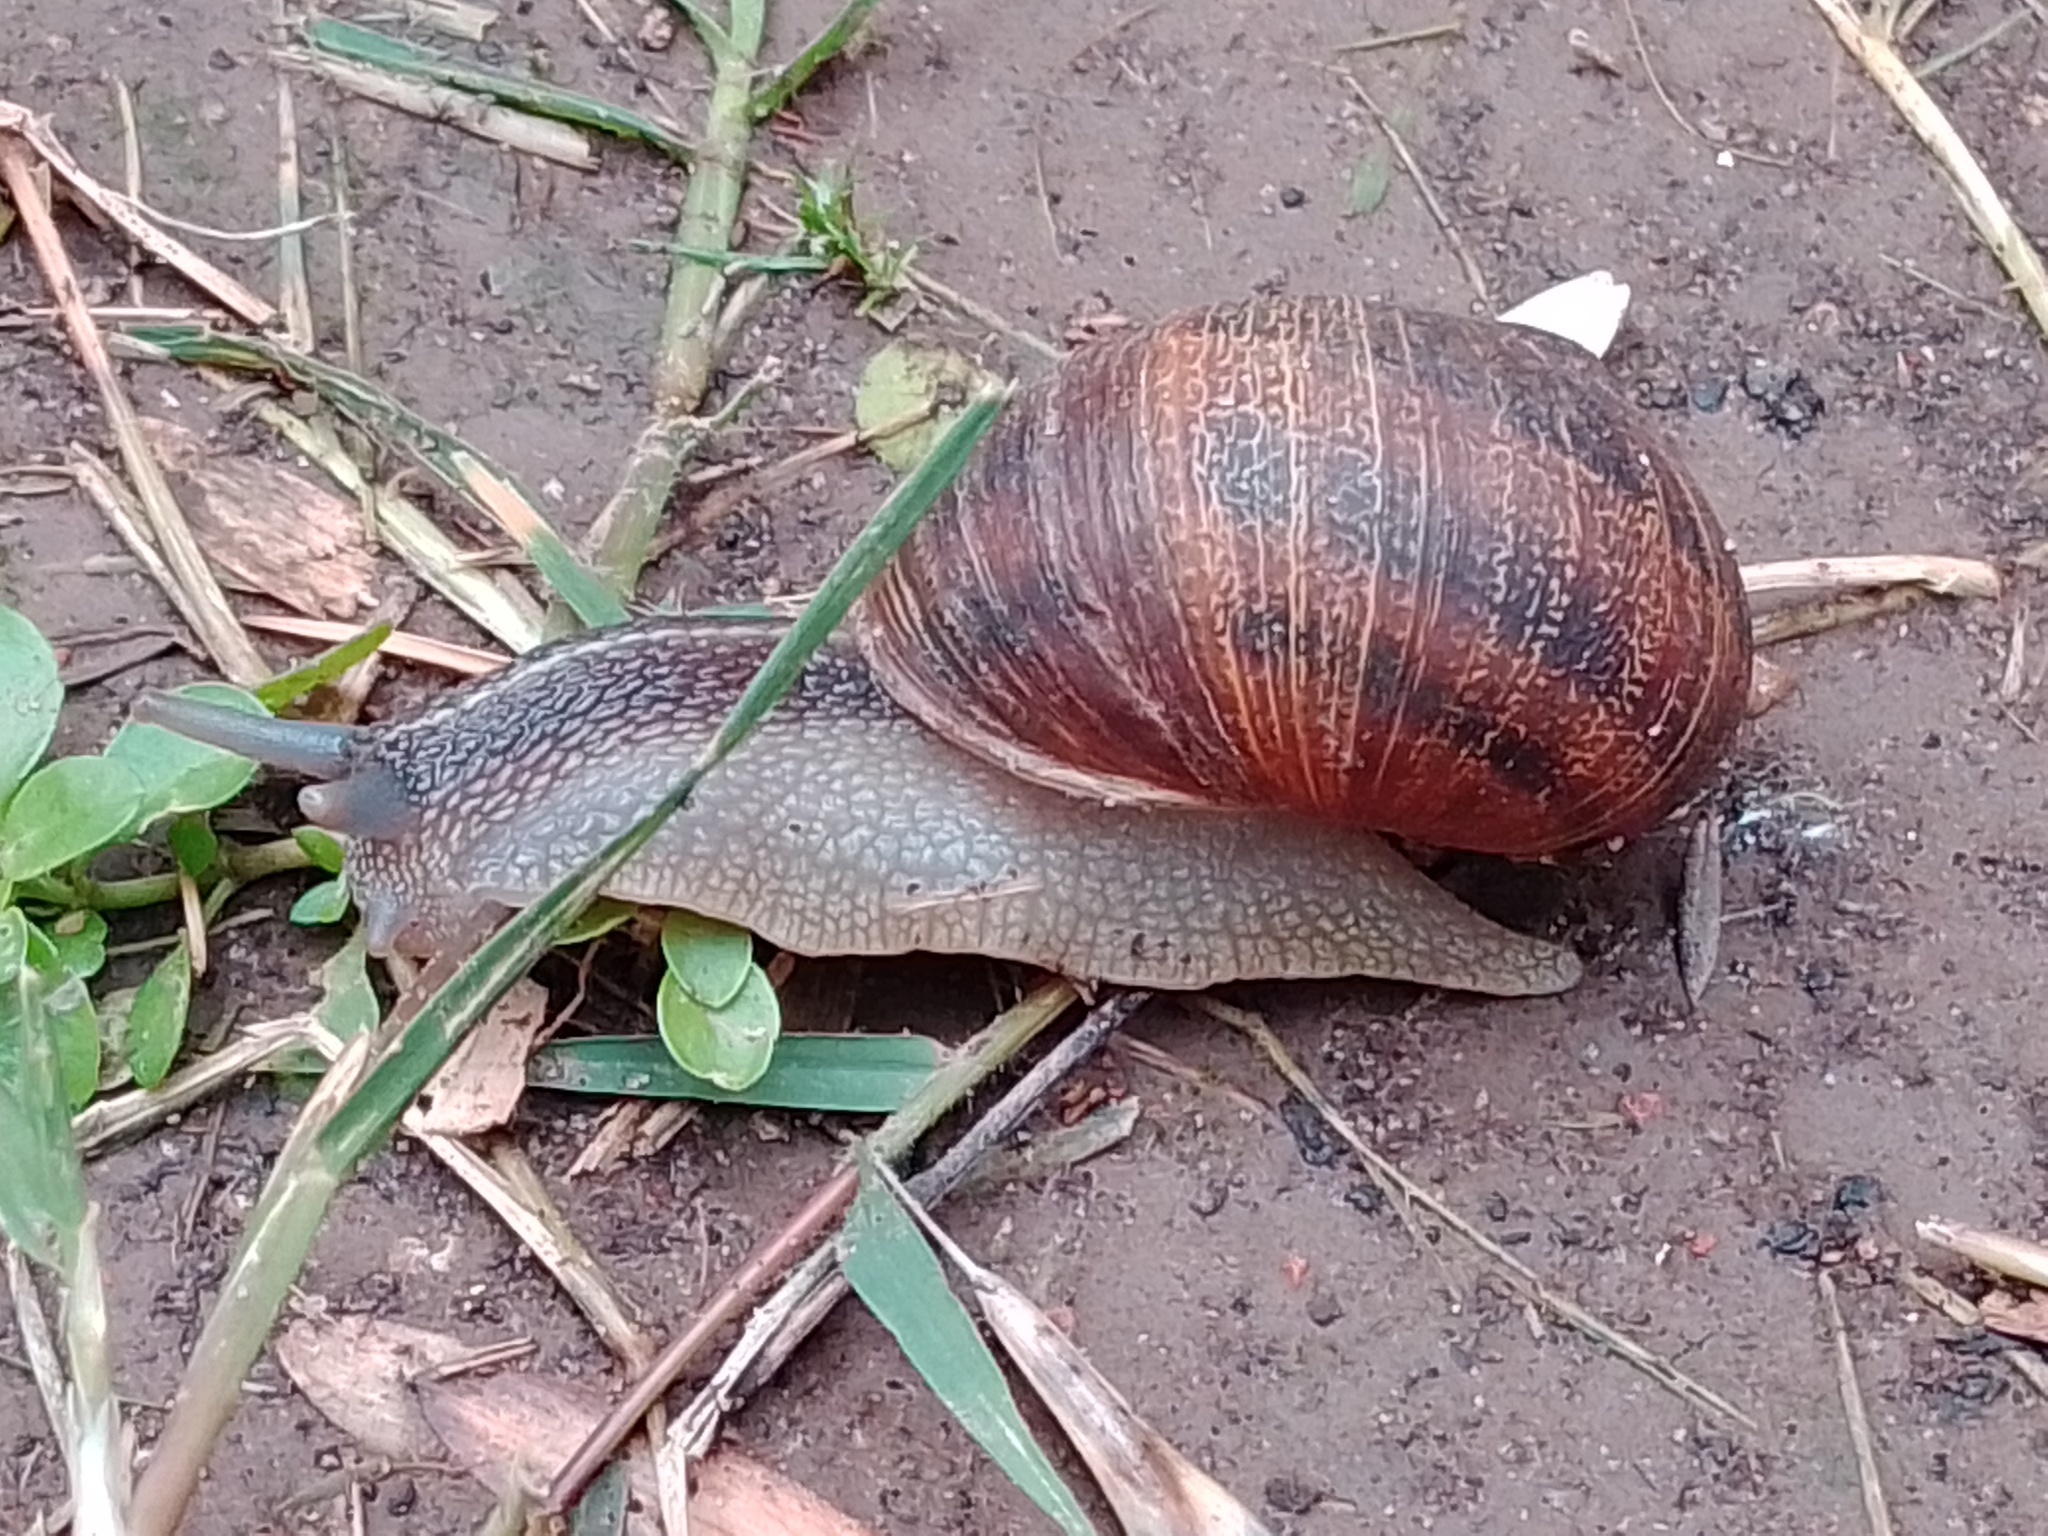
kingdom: Animalia
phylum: Mollusca
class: Gastropoda
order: Stylommatophora
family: Helicidae
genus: Cornu
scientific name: Cornu aspersum
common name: Brown garden snail
